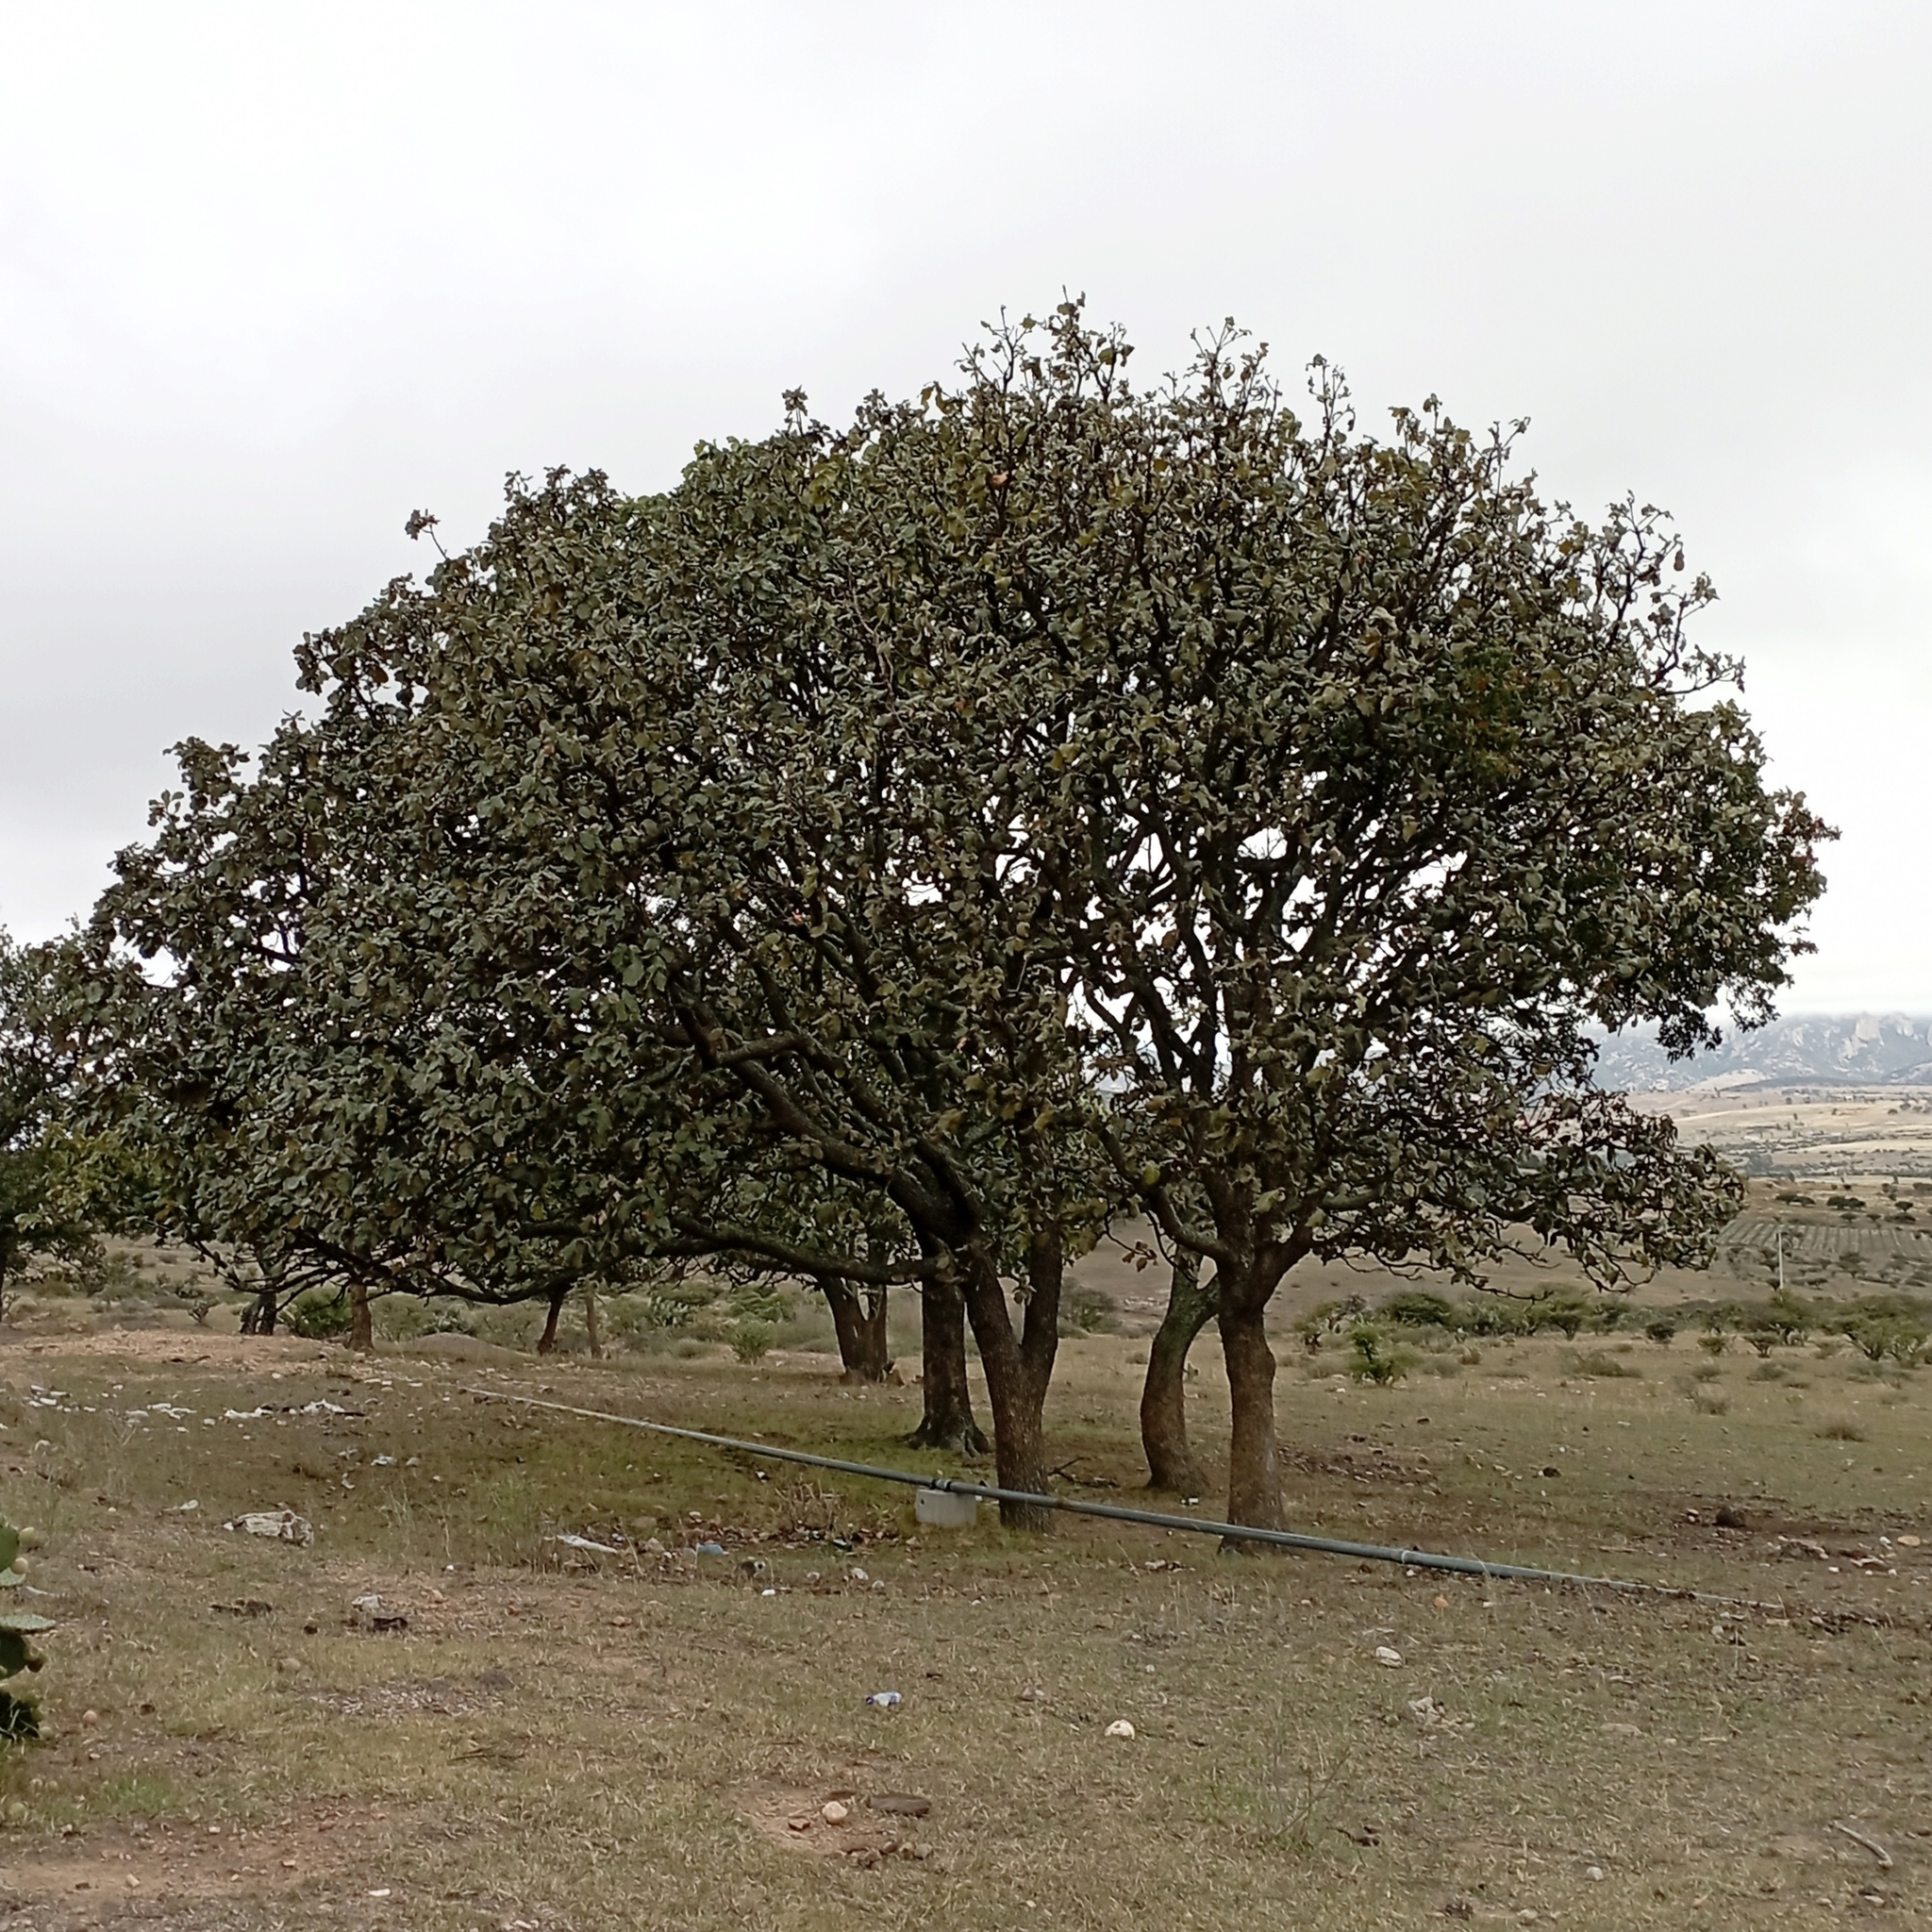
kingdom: Plantae
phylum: Tracheophyta
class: Magnoliopsida
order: Fagales
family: Fagaceae
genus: Quercus
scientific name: Quercus resinosa
